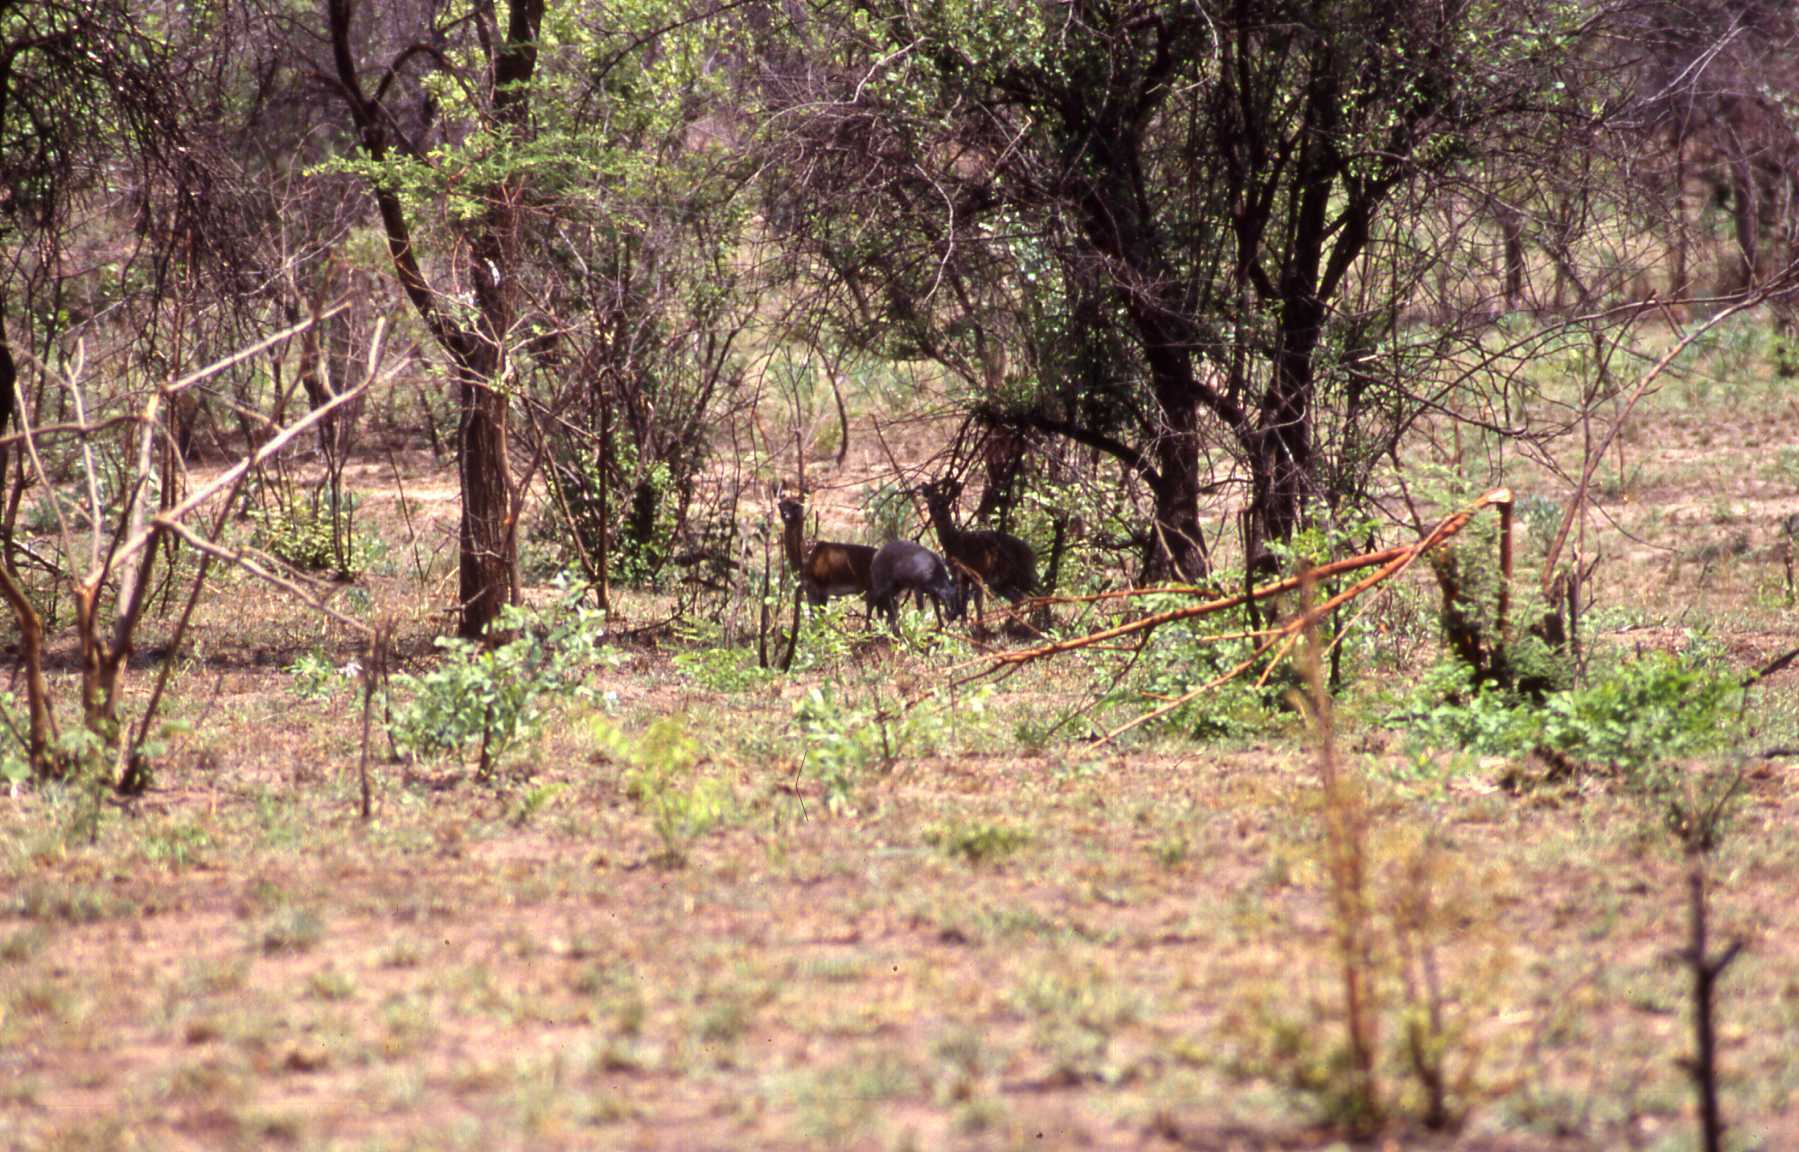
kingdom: Animalia
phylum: Chordata
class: Mammalia
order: Artiodactyla
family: Bovidae
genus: Oreotragus
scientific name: Oreotragus oreotragus
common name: Klipspringer
